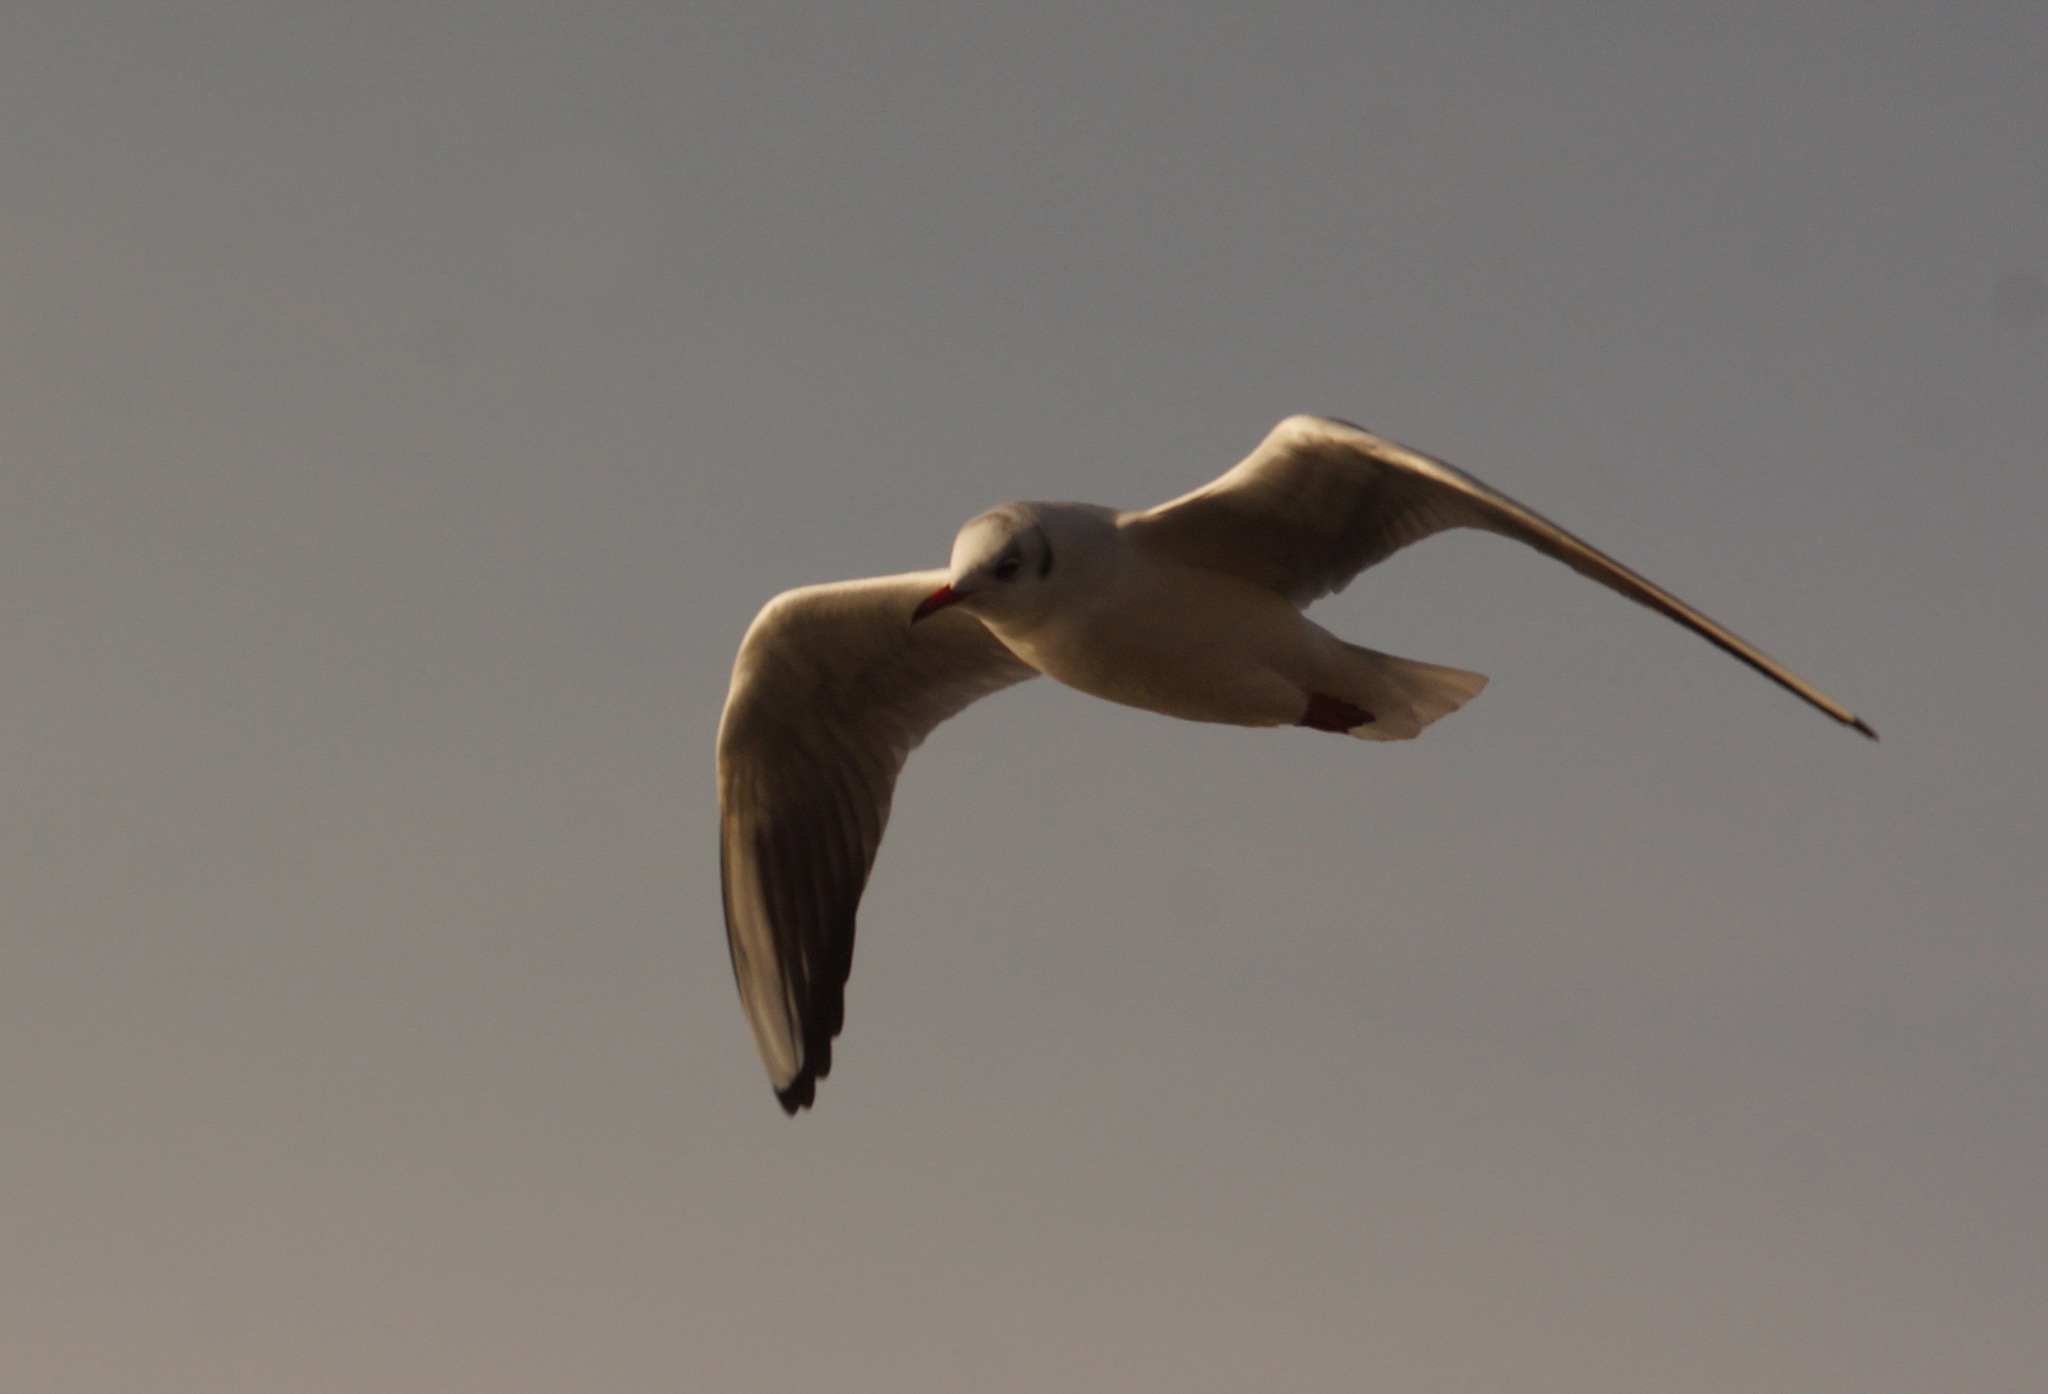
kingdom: Animalia
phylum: Chordata
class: Aves
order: Charadriiformes
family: Laridae
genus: Chroicocephalus
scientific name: Chroicocephalus ridibundus
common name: Black-headed gull
